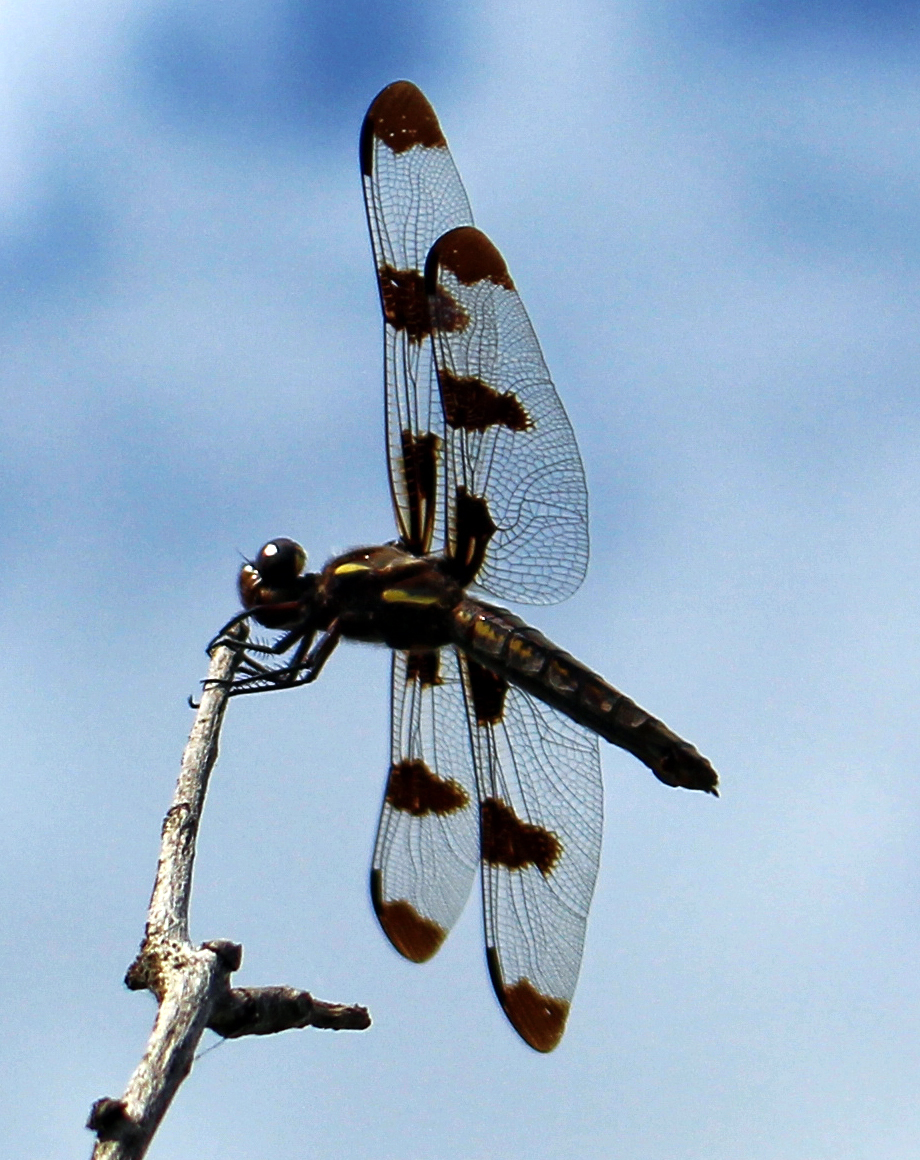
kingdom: Animalia
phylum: Arthropoda
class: Insecta
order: Odonata
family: Libellulidae
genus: Libellula
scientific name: Libellula pulchella
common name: Twelve-spotted skimmer
